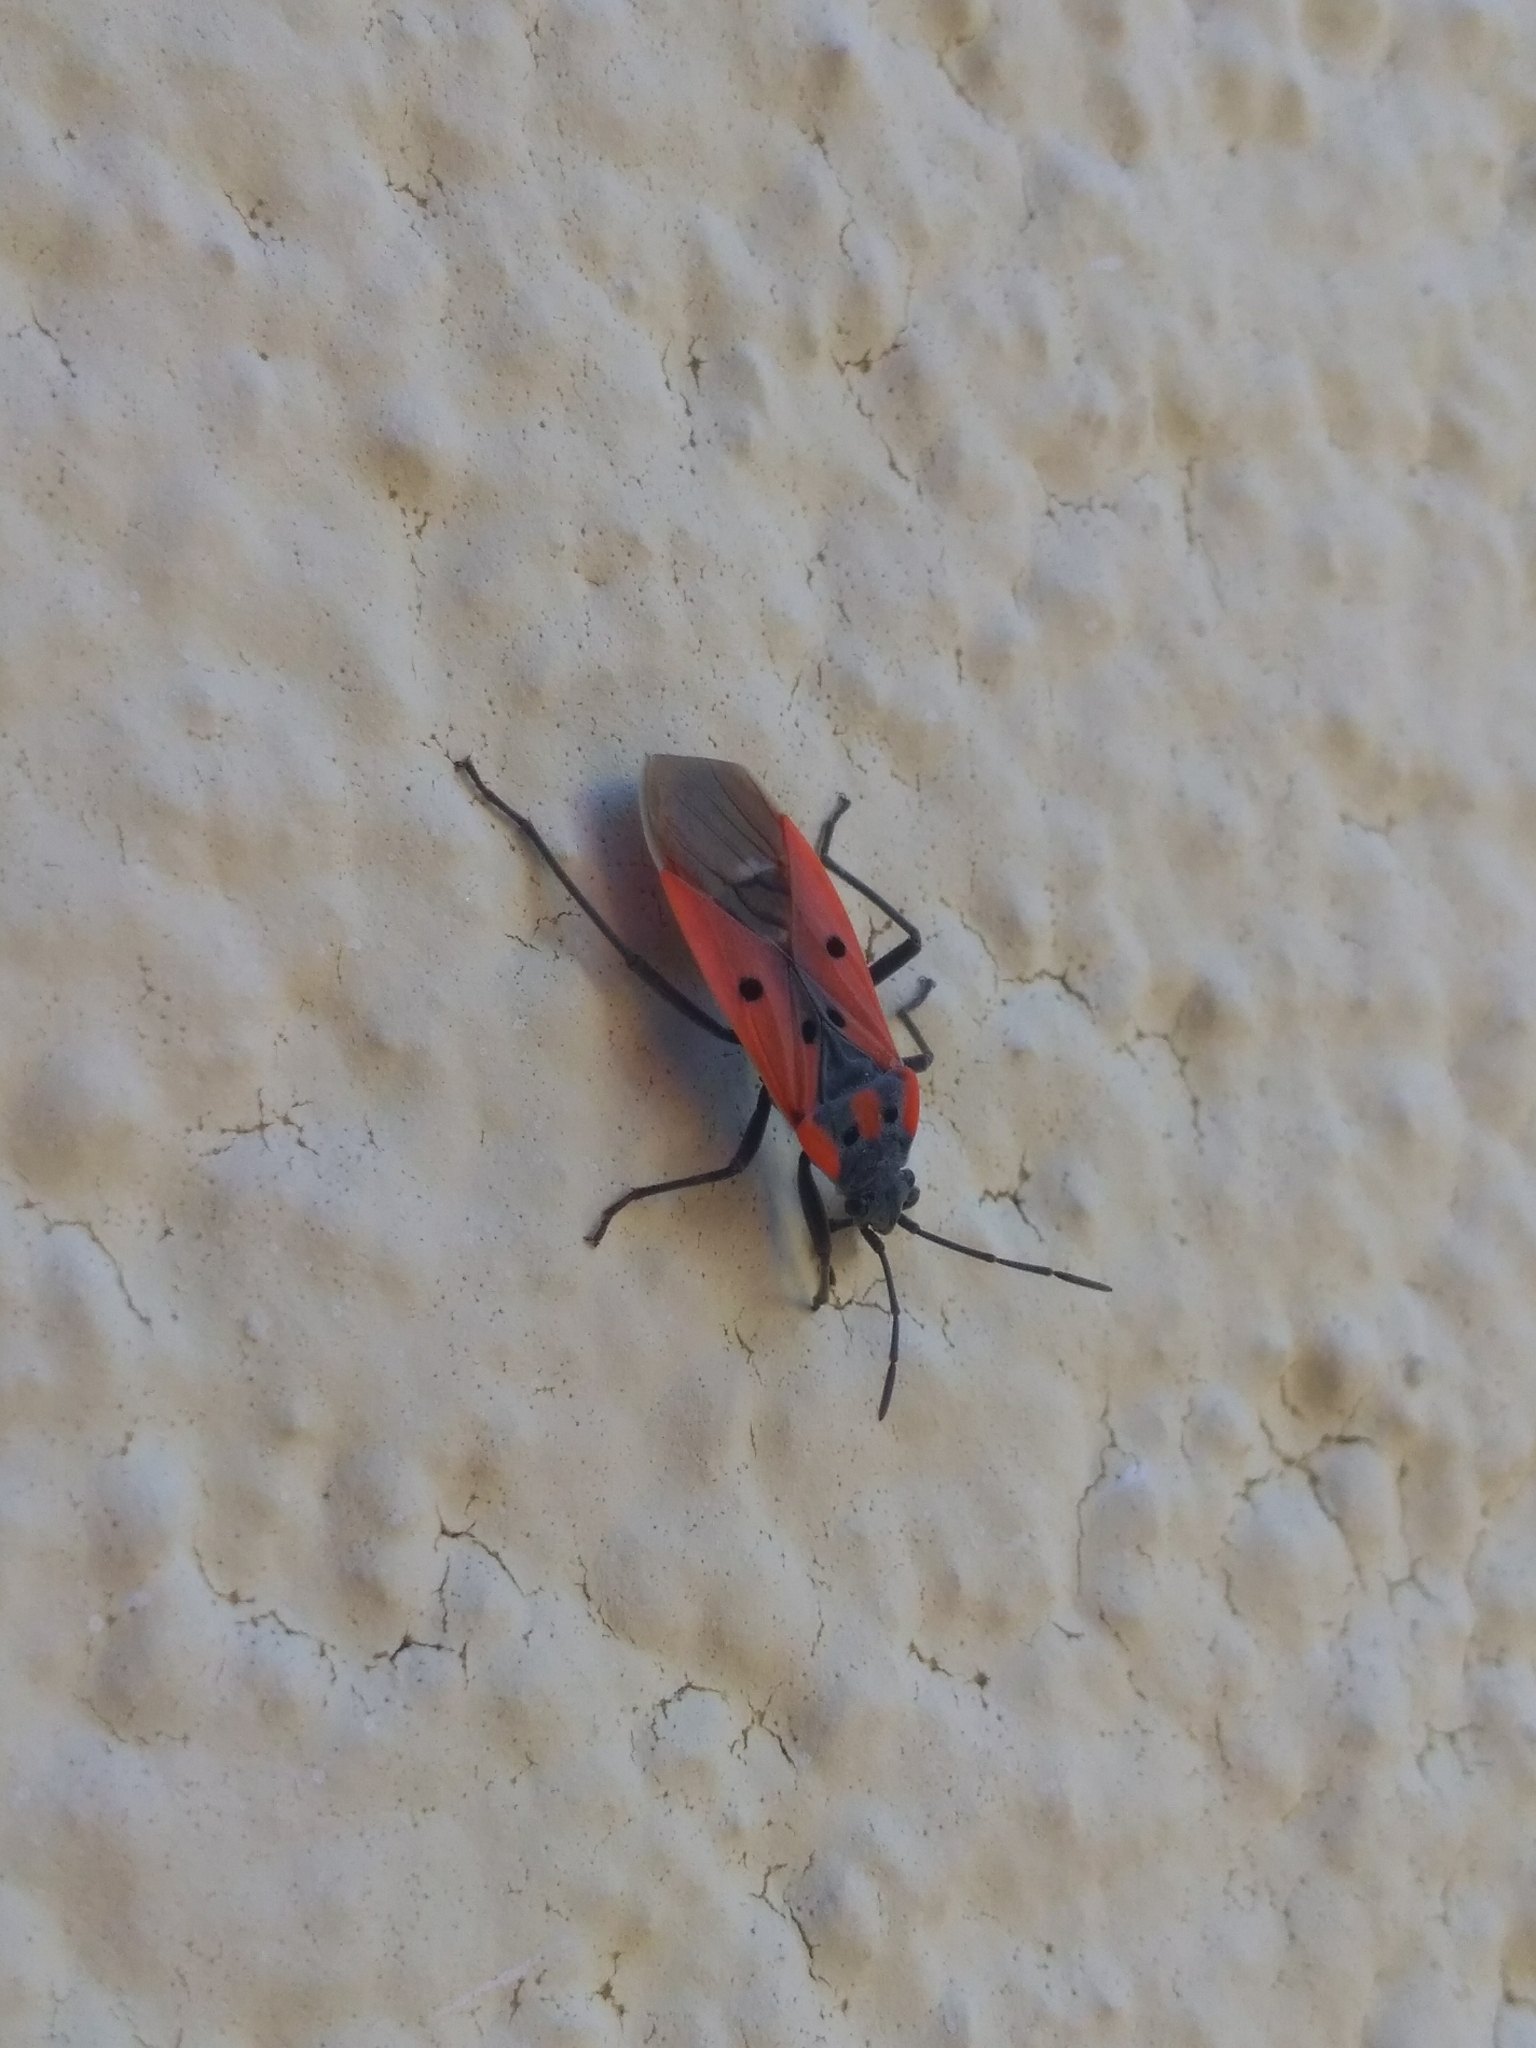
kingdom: Animalia
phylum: Arthropoda
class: Insecta
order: Hemiptera
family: Lygaeidae
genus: Lygaeus
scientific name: Lygaeus creticus
